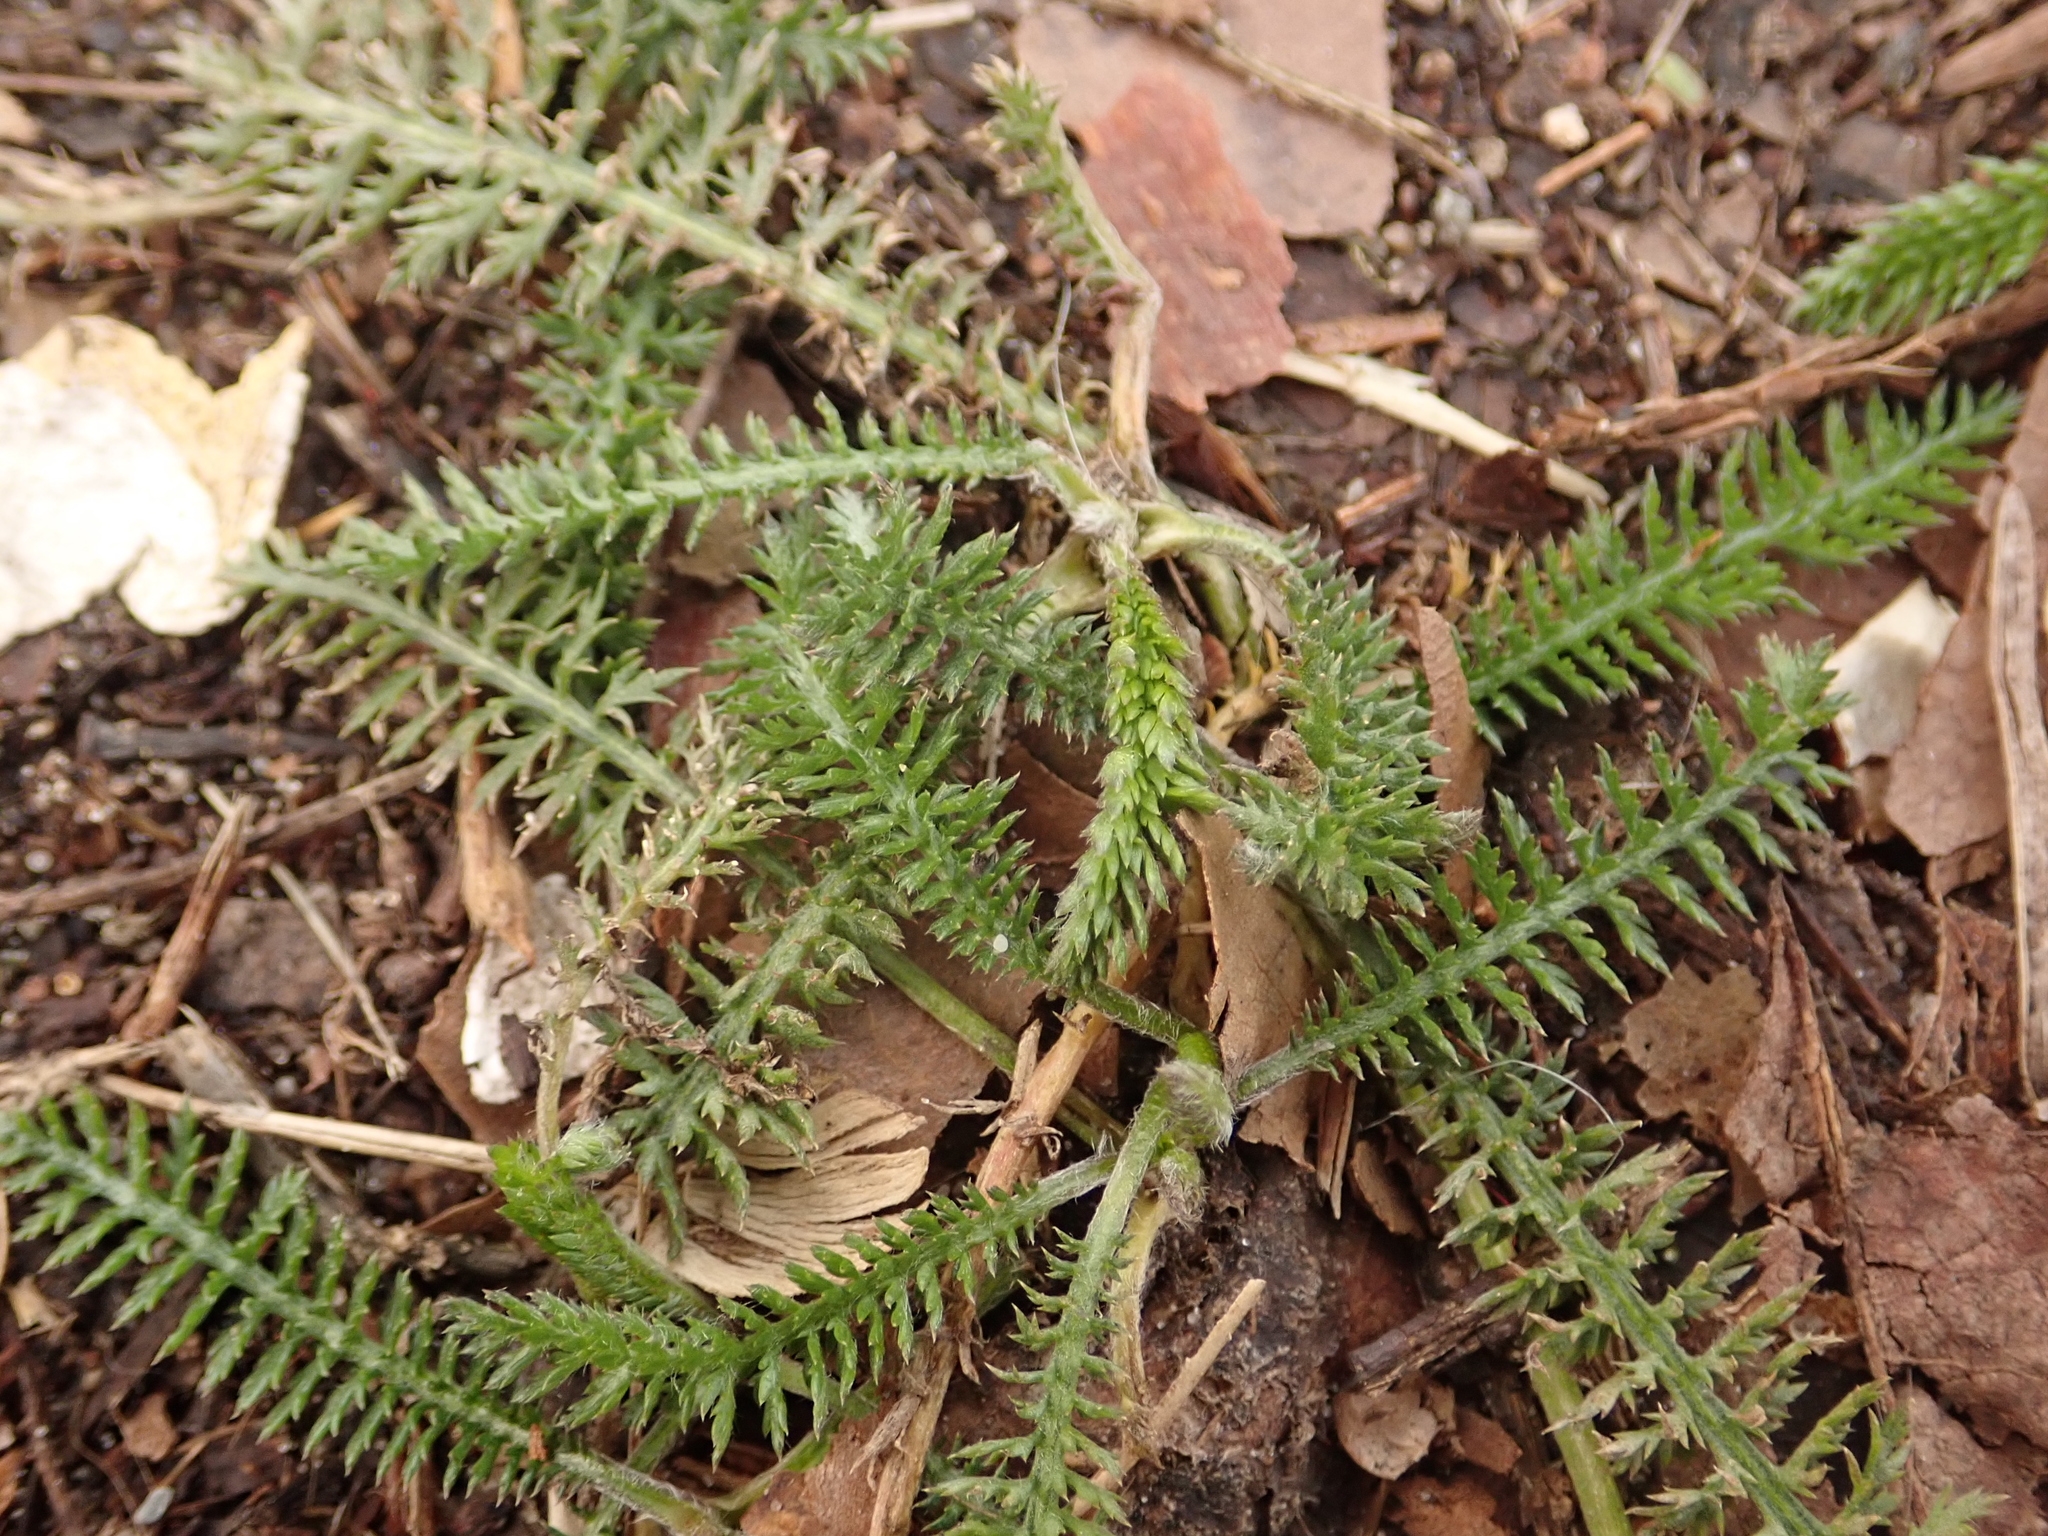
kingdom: Plantae
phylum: Tracheophyta
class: Magnoliopsida
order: Asterales
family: Asteraceae
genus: Achillea
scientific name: Achillea millefolium
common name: Yarrow
